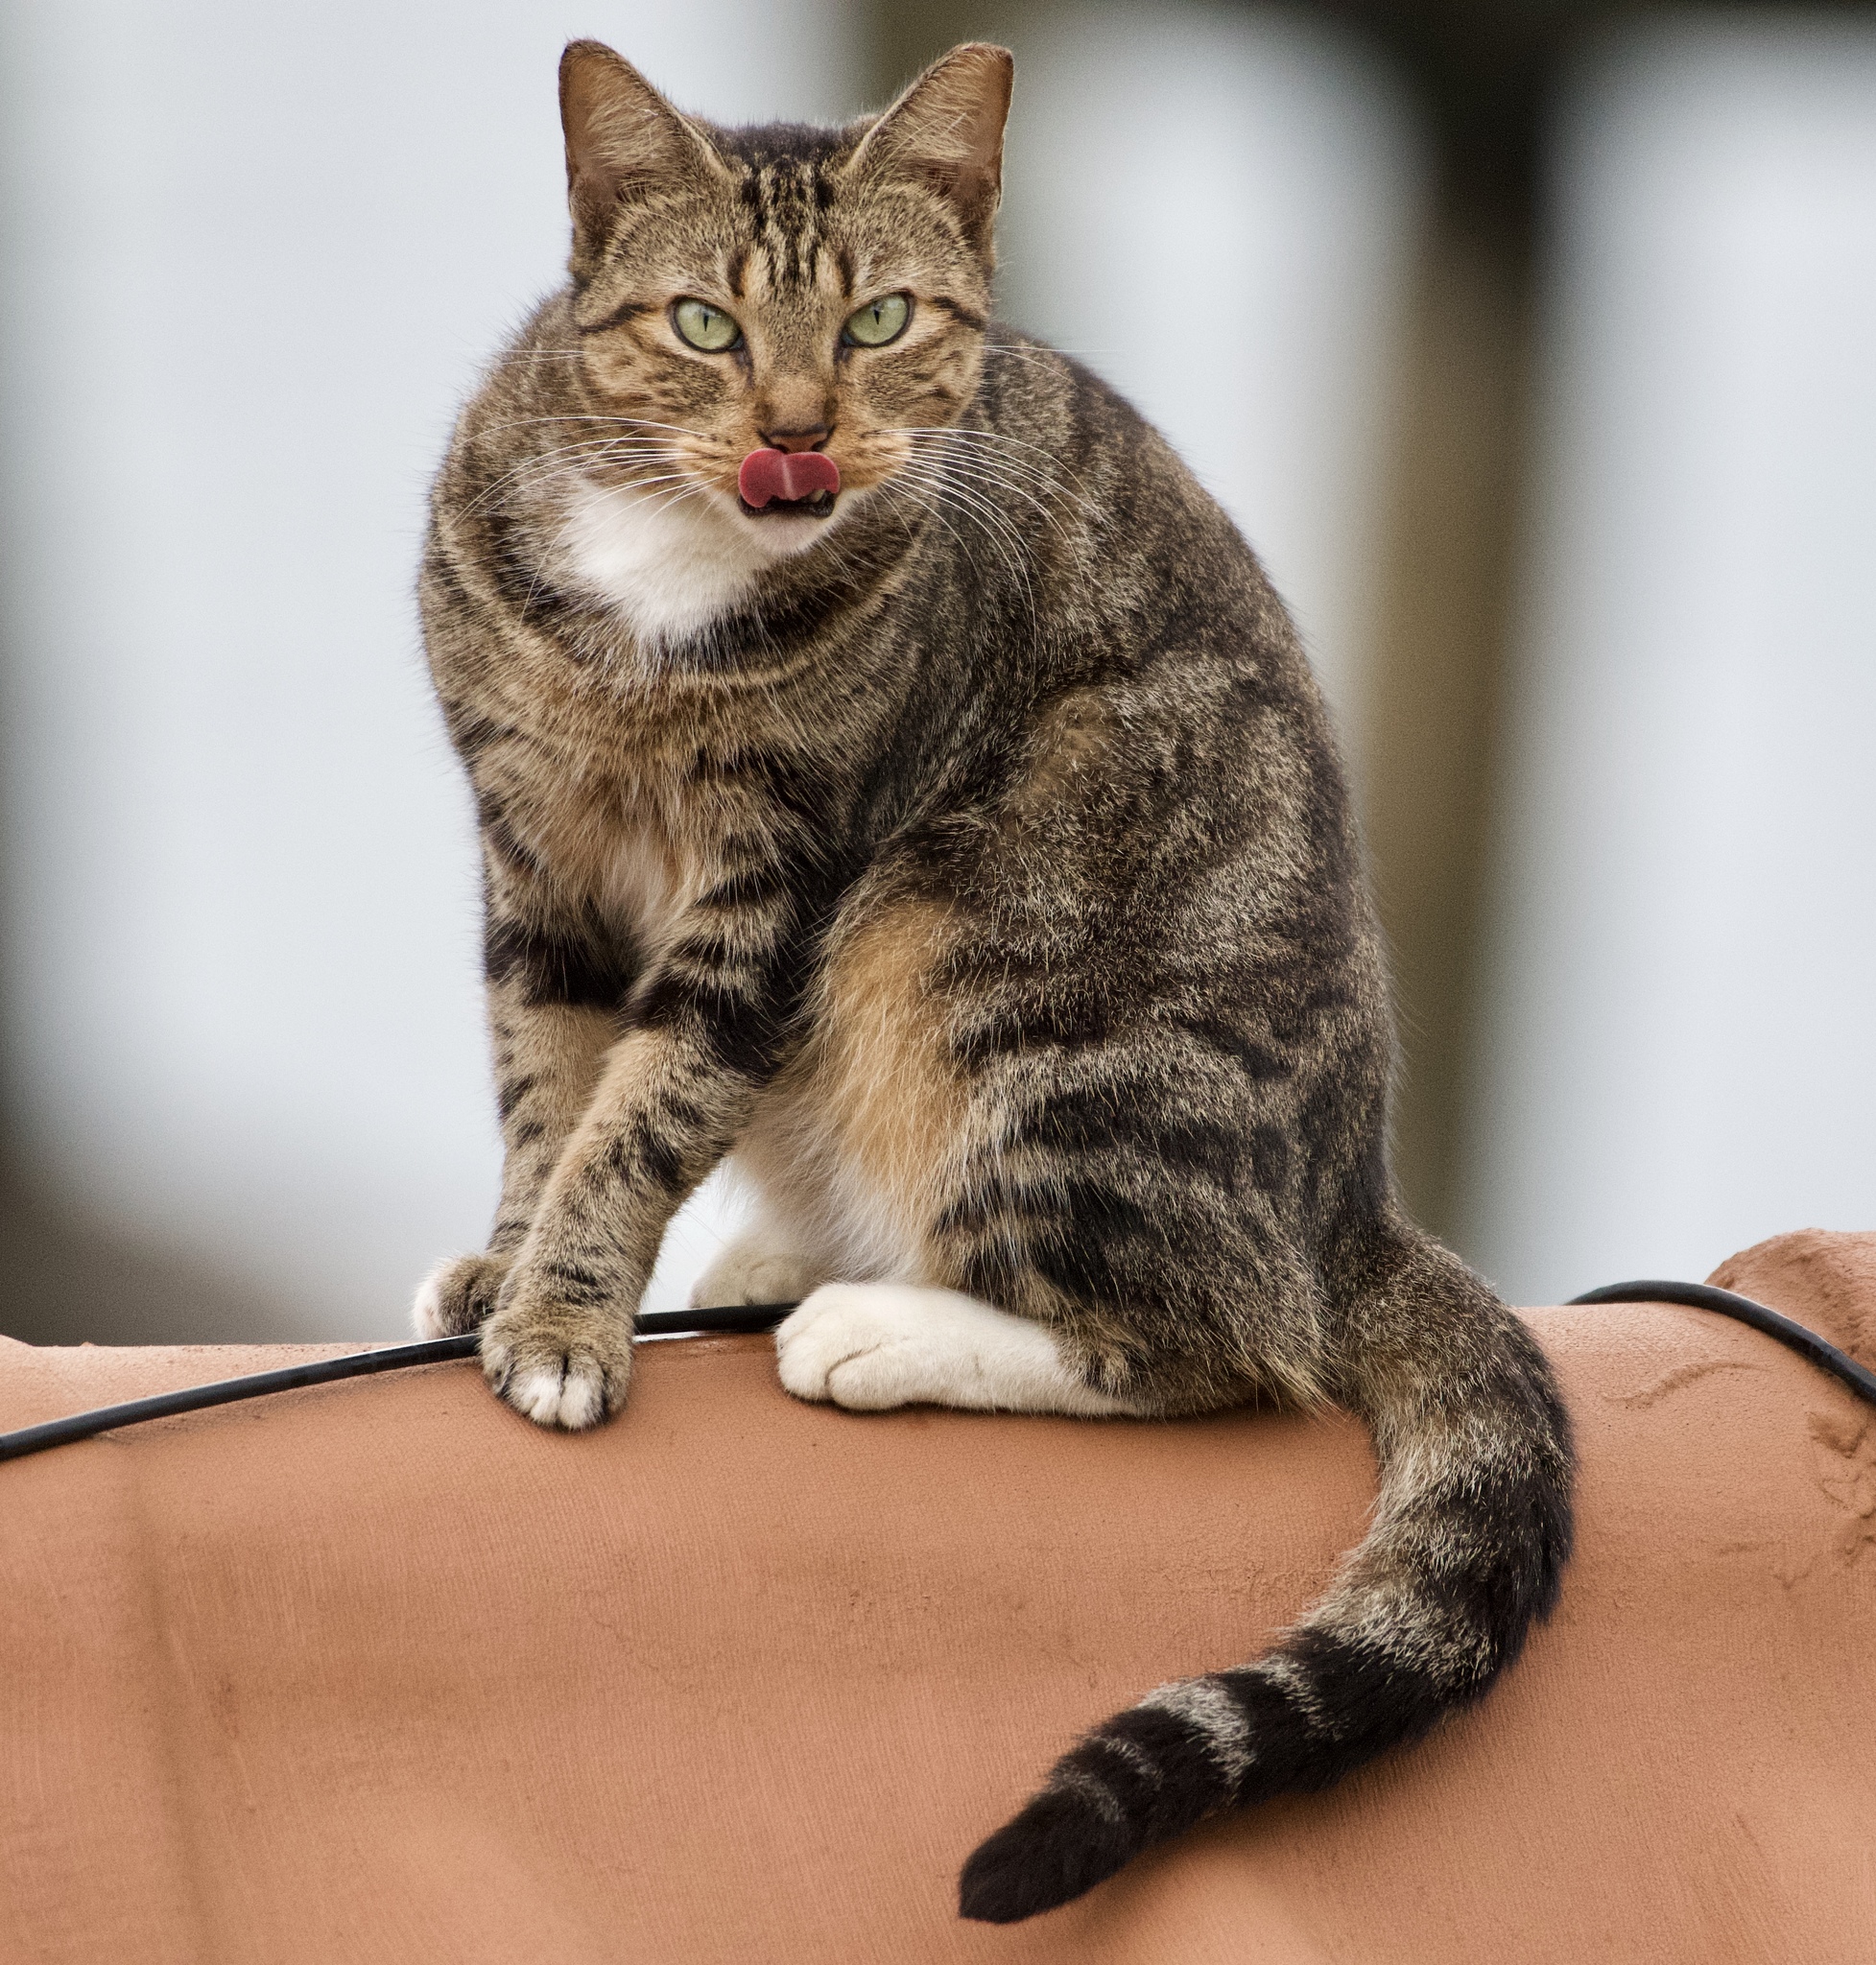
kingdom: Animalia
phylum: Chordata
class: Mammalia
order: Carnivora
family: Felidae
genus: Felis
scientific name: Felis catus
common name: Domestic cat
